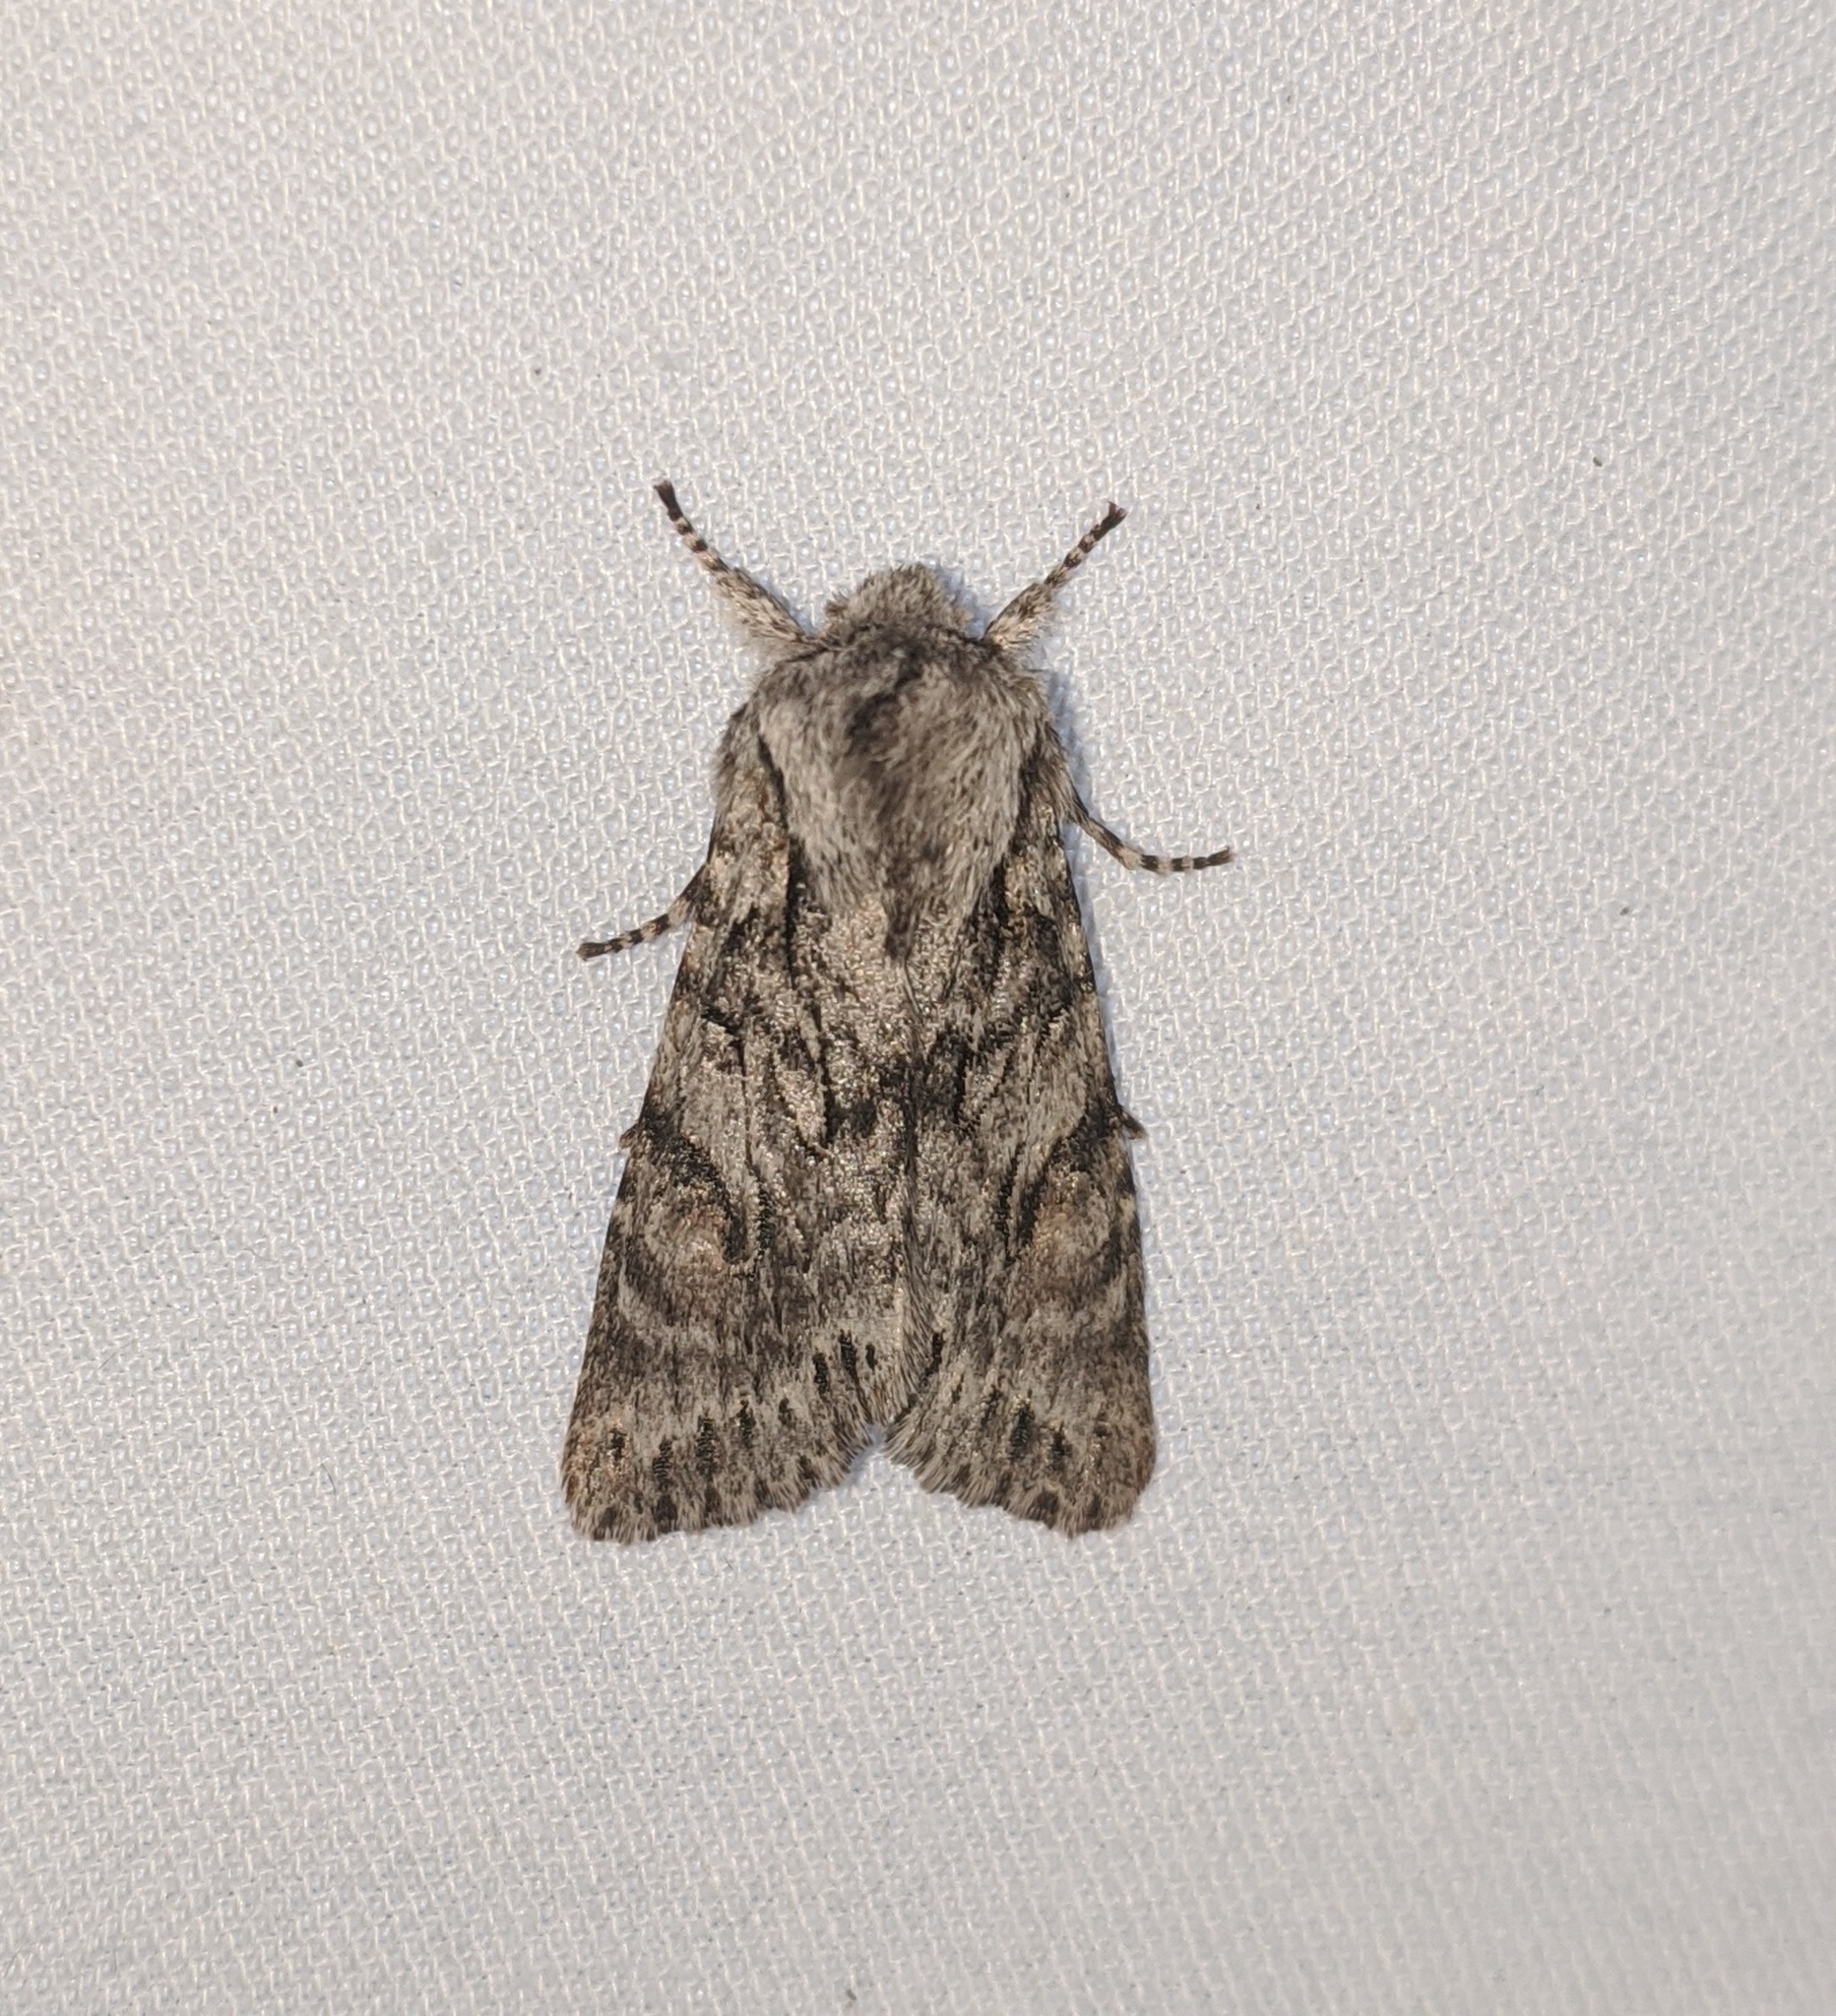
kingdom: Animalia
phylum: Arthropoda
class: Insecta
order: Lepidoptera
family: Noctuidae
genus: Egira
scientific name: Egira simplex
